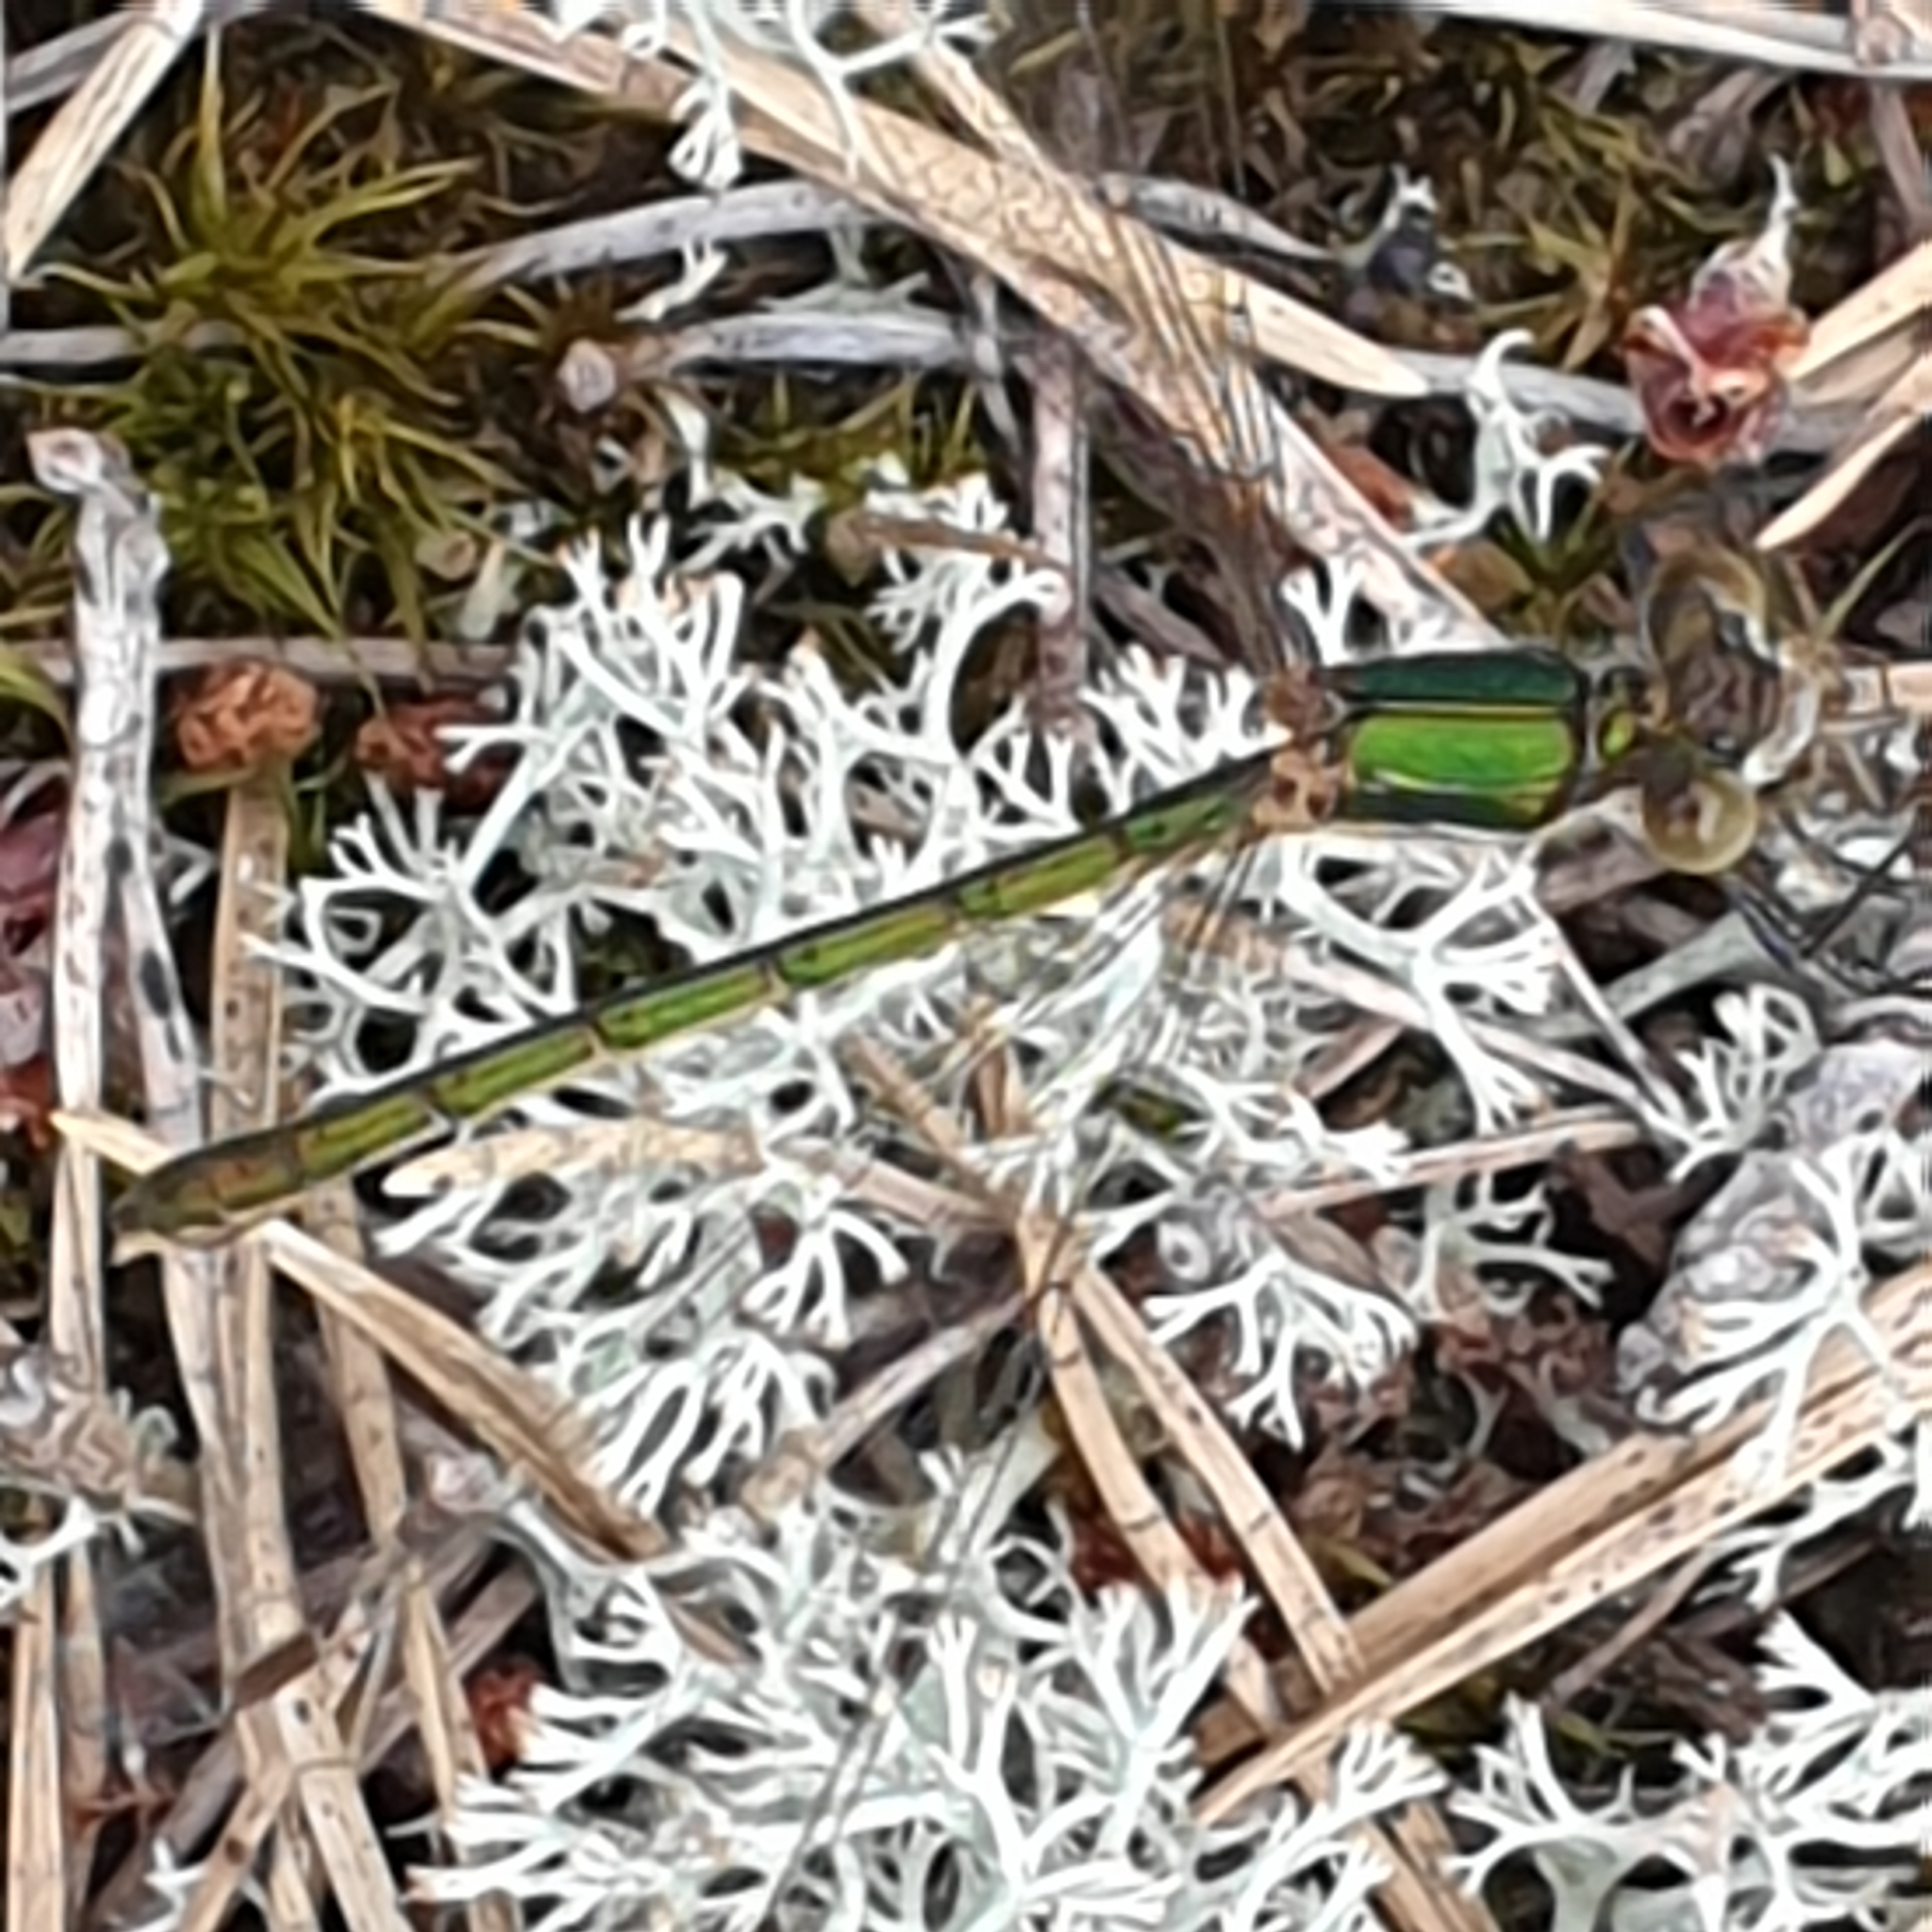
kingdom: Animalia
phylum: Arthropoda
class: Insecta
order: Odonata
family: Lestidae
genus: Lestes
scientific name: Lestes sponsa
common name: Common spreadwing
